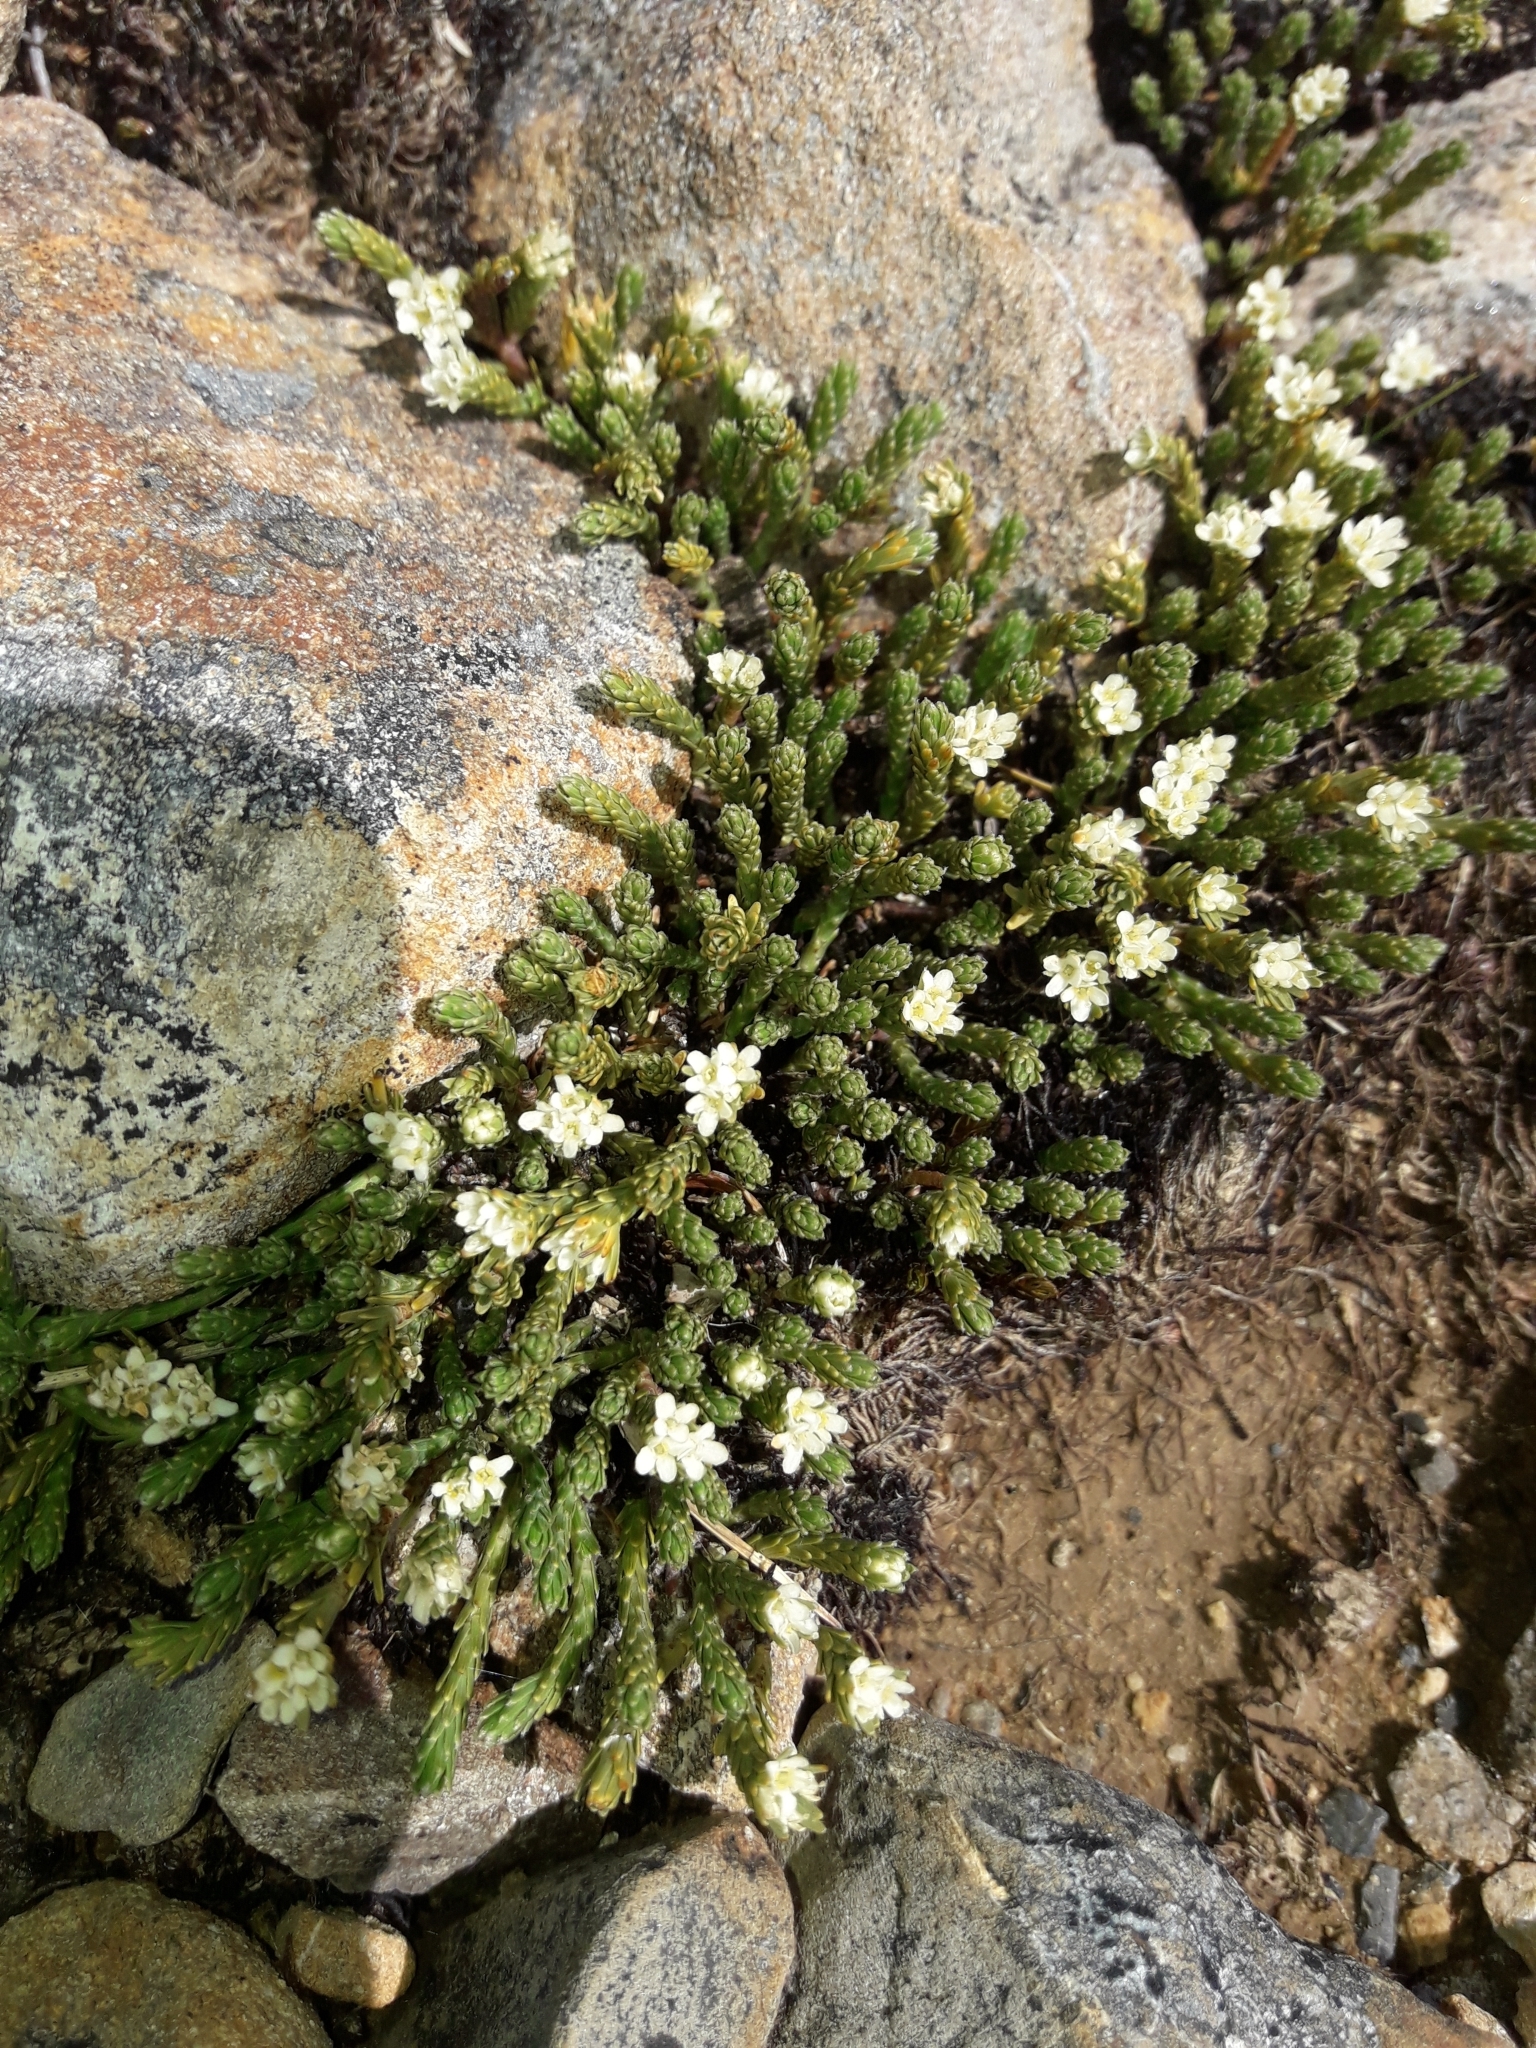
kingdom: Plantae
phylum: Tracheophyta
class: Magnoliopsida
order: Malvales
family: Thymelaeaceae
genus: Kelleria
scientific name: Kelleria dieffenbachii
